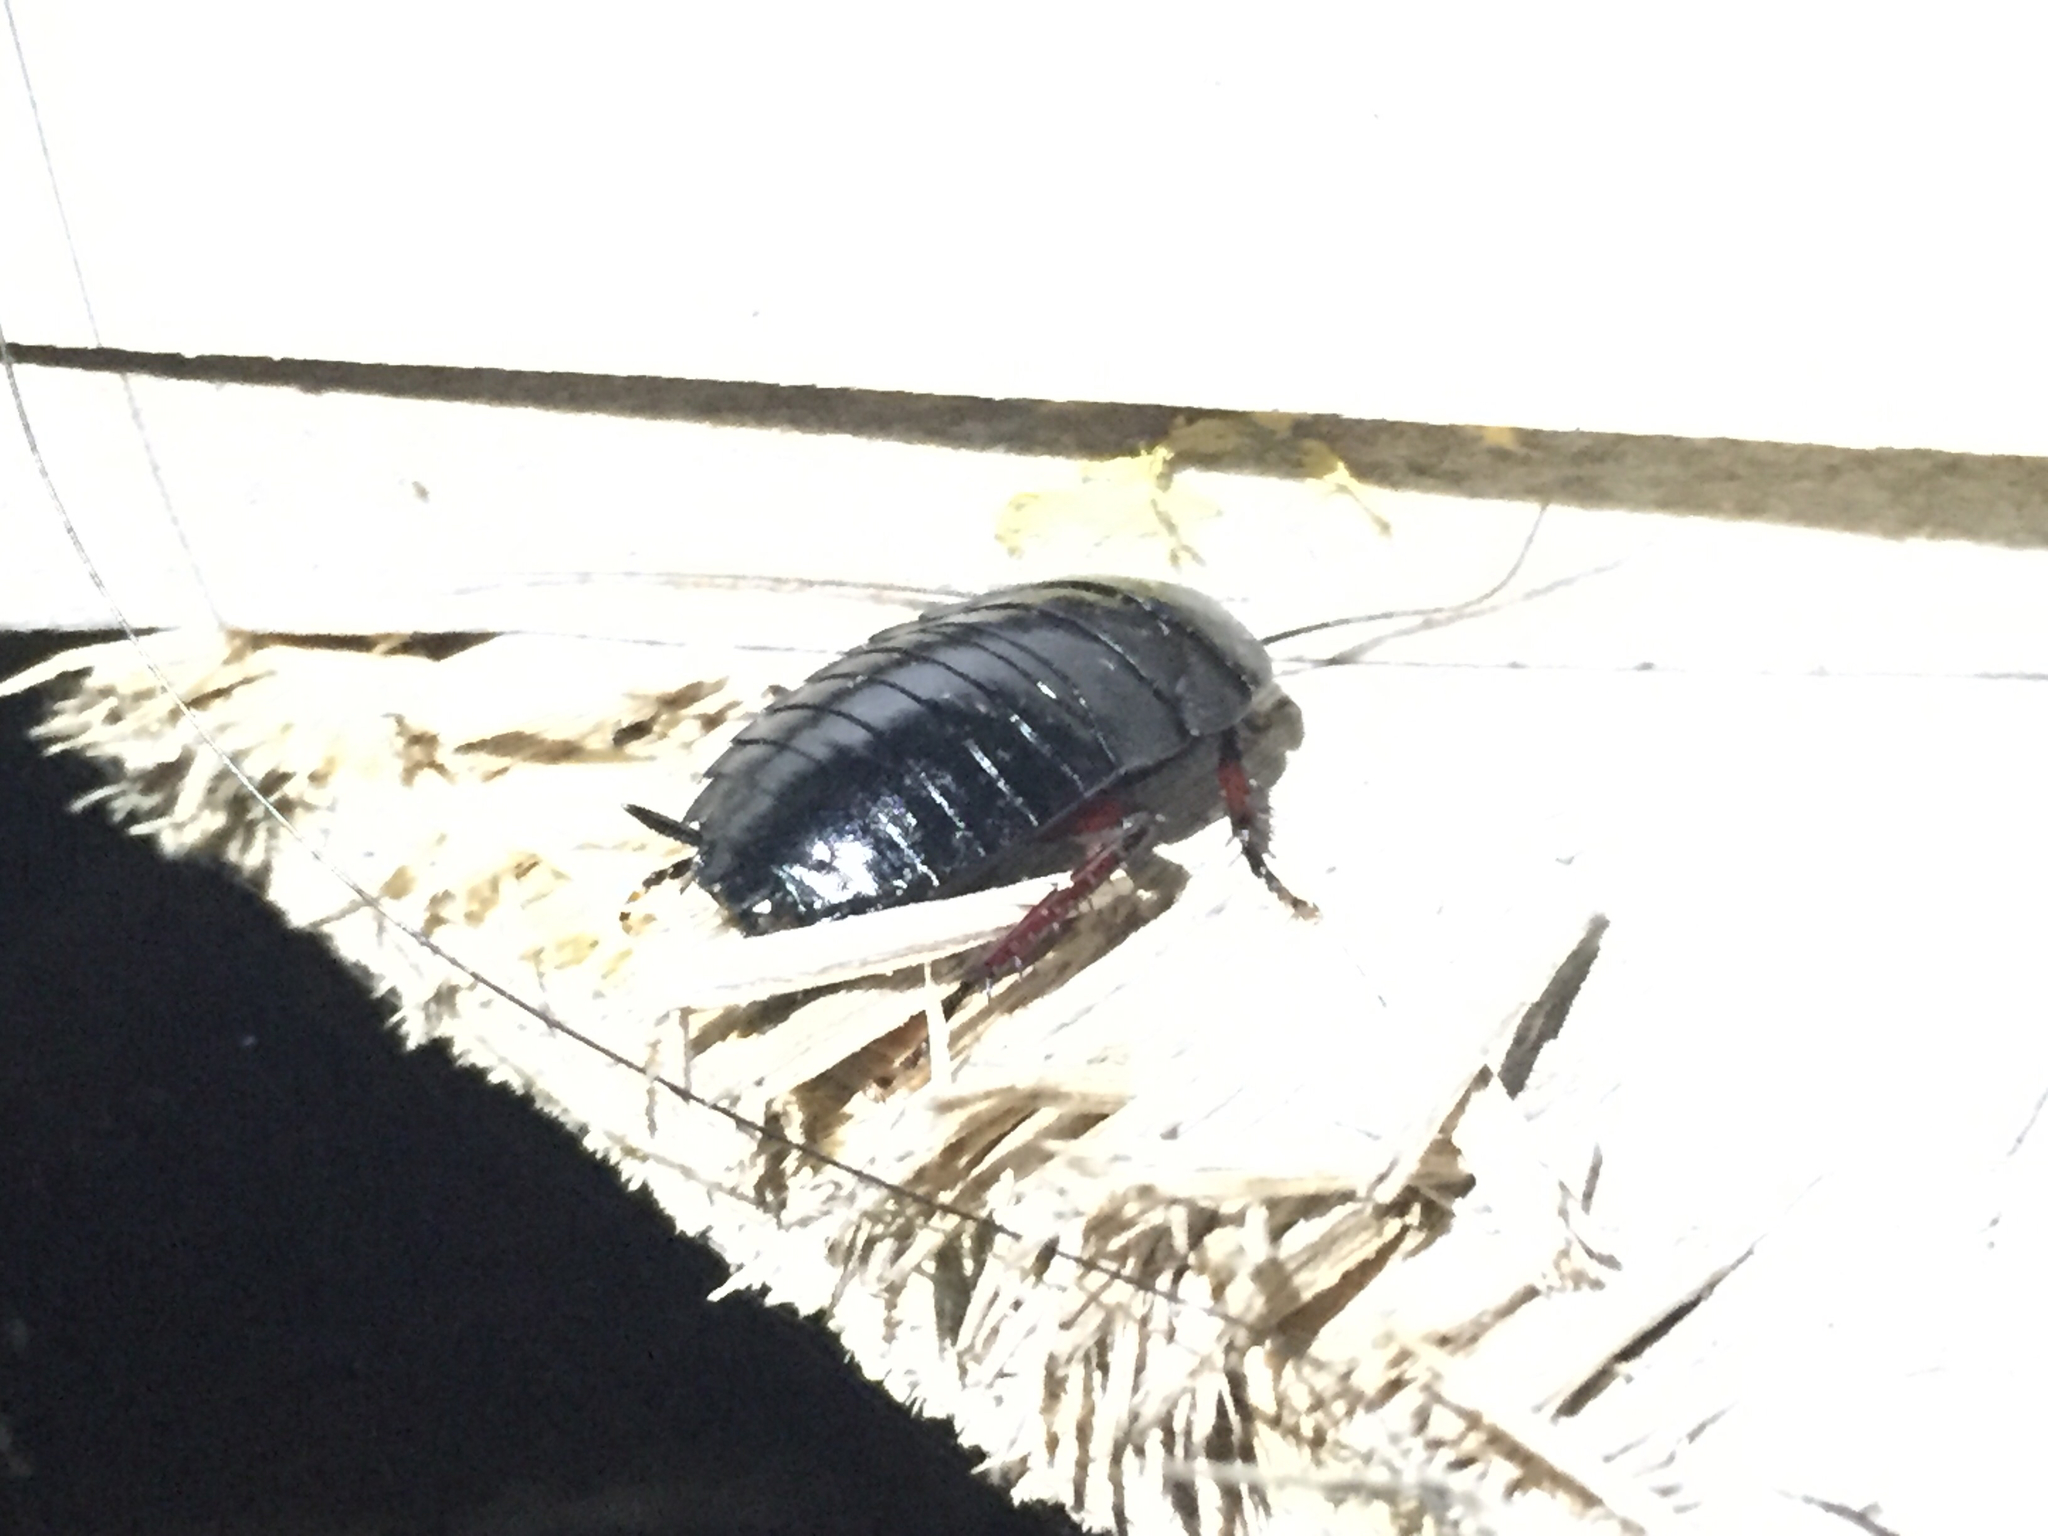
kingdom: Animalia
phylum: Arthropoda
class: Insecta
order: Blattodea
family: Blattidae
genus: Maoriblatta
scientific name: Maoriblatta novaeseelandiae
